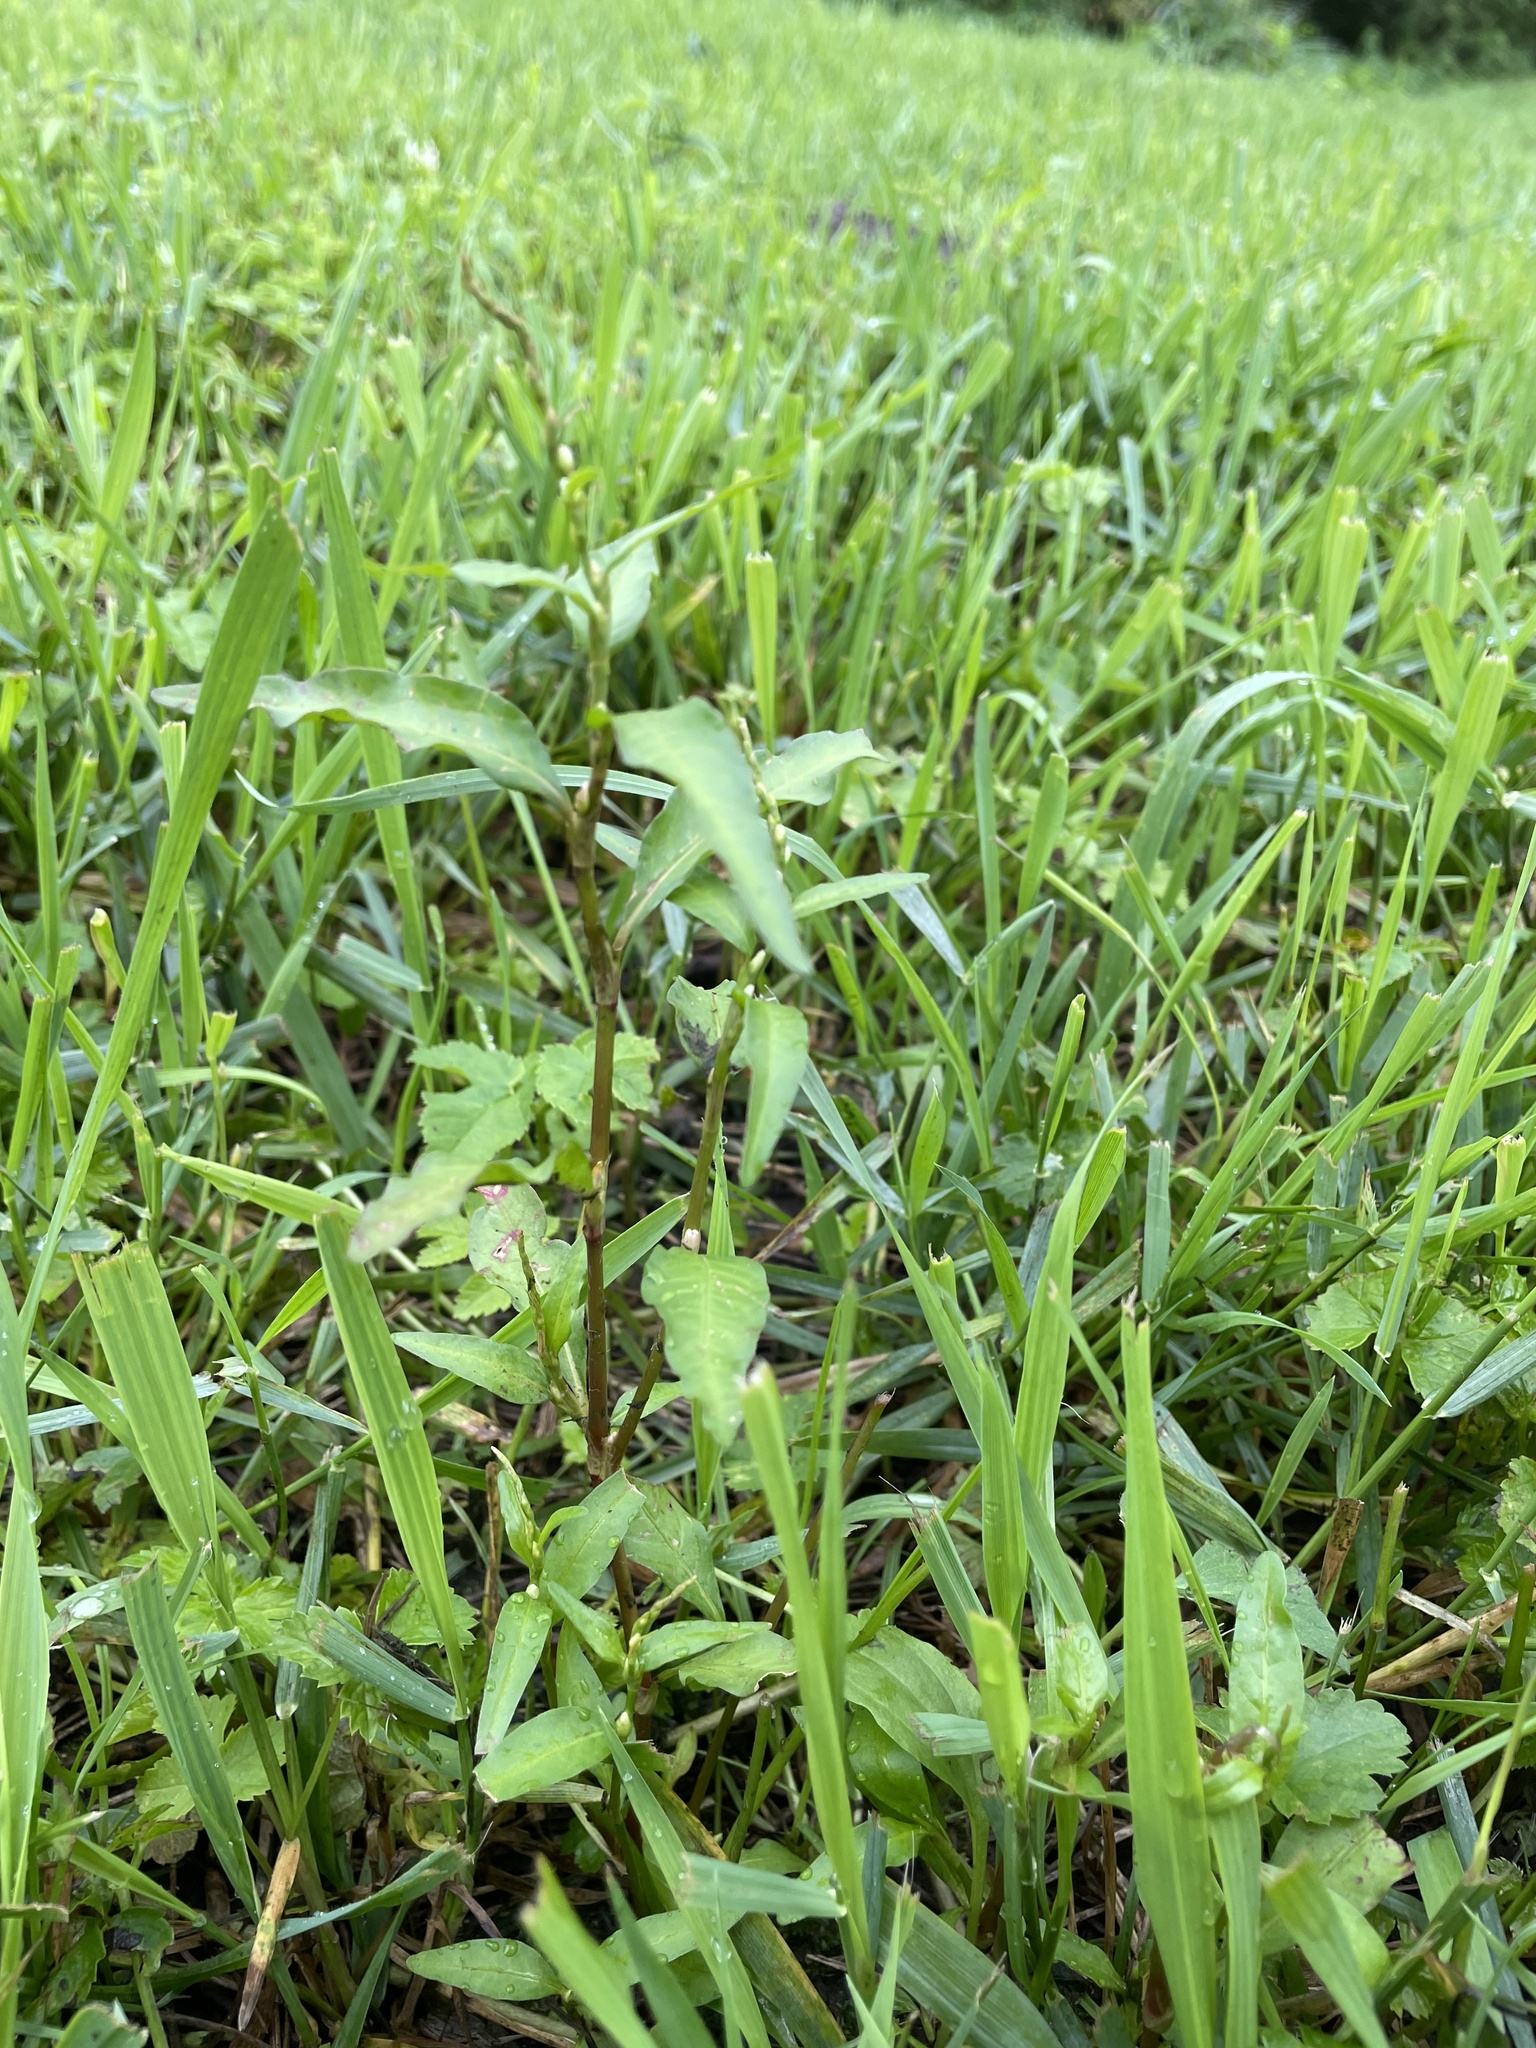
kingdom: Plantae
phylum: Tracheophyta
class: Magnoliopsida
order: Caryophyllales
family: Polygonaceae
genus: Persicaria
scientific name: Persicaria hydropiper
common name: Water-pepper
